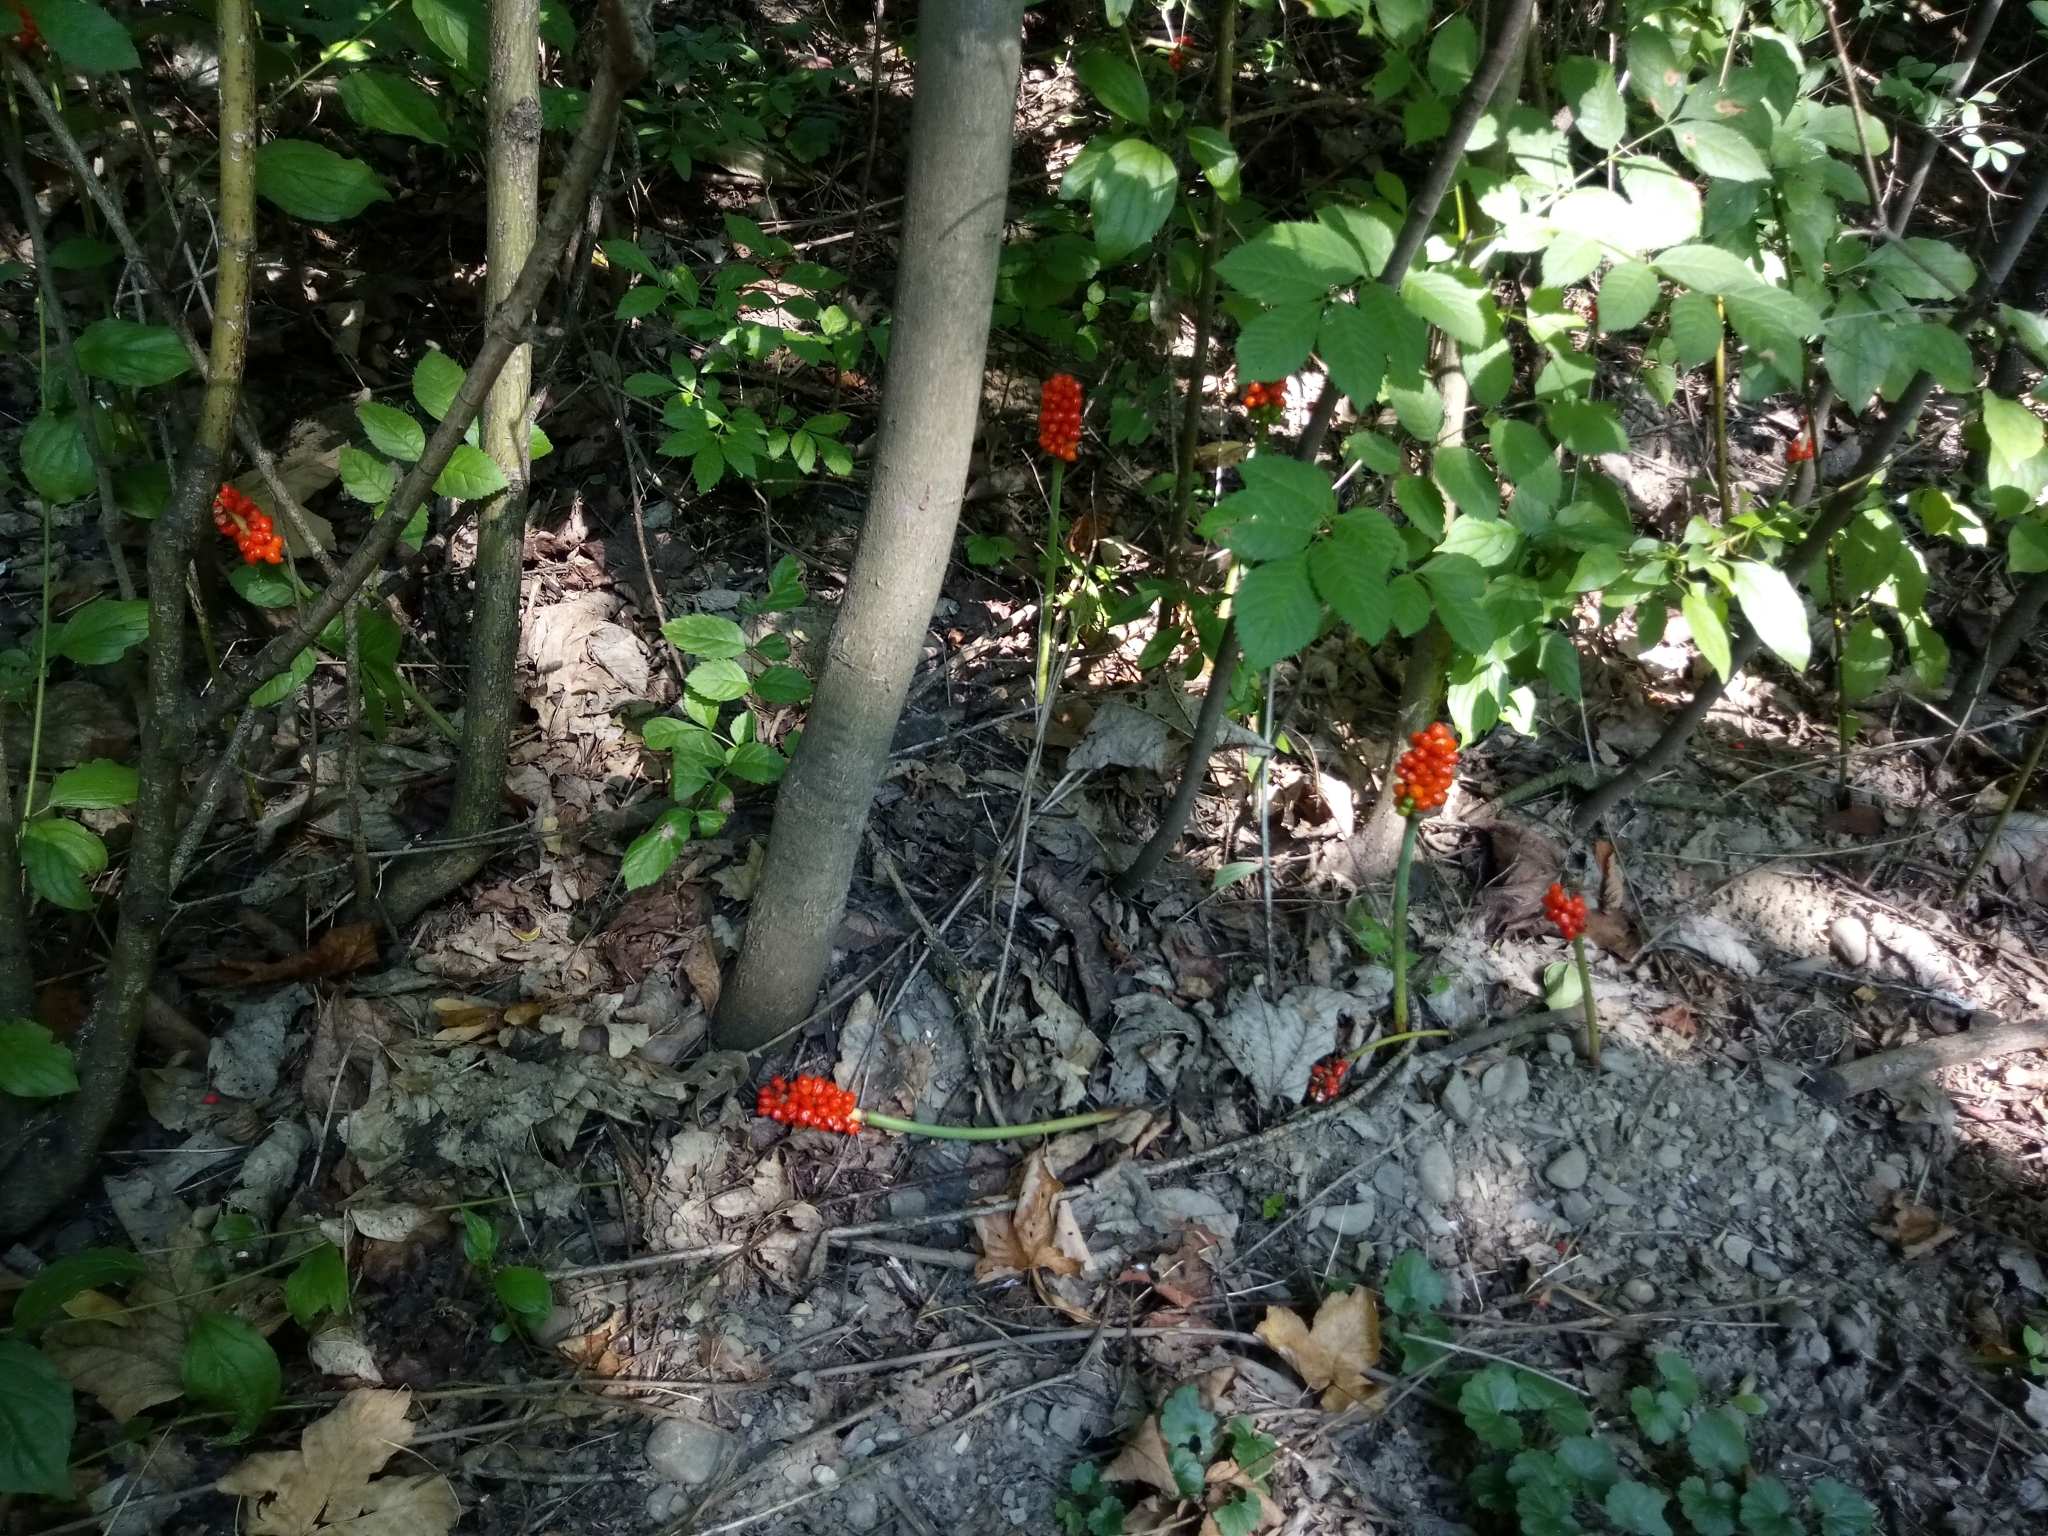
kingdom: Plantae
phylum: Tracheophyta
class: Liliopsida
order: Alismatales
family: Araceae
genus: Arum
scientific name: Arum cylindraceum
